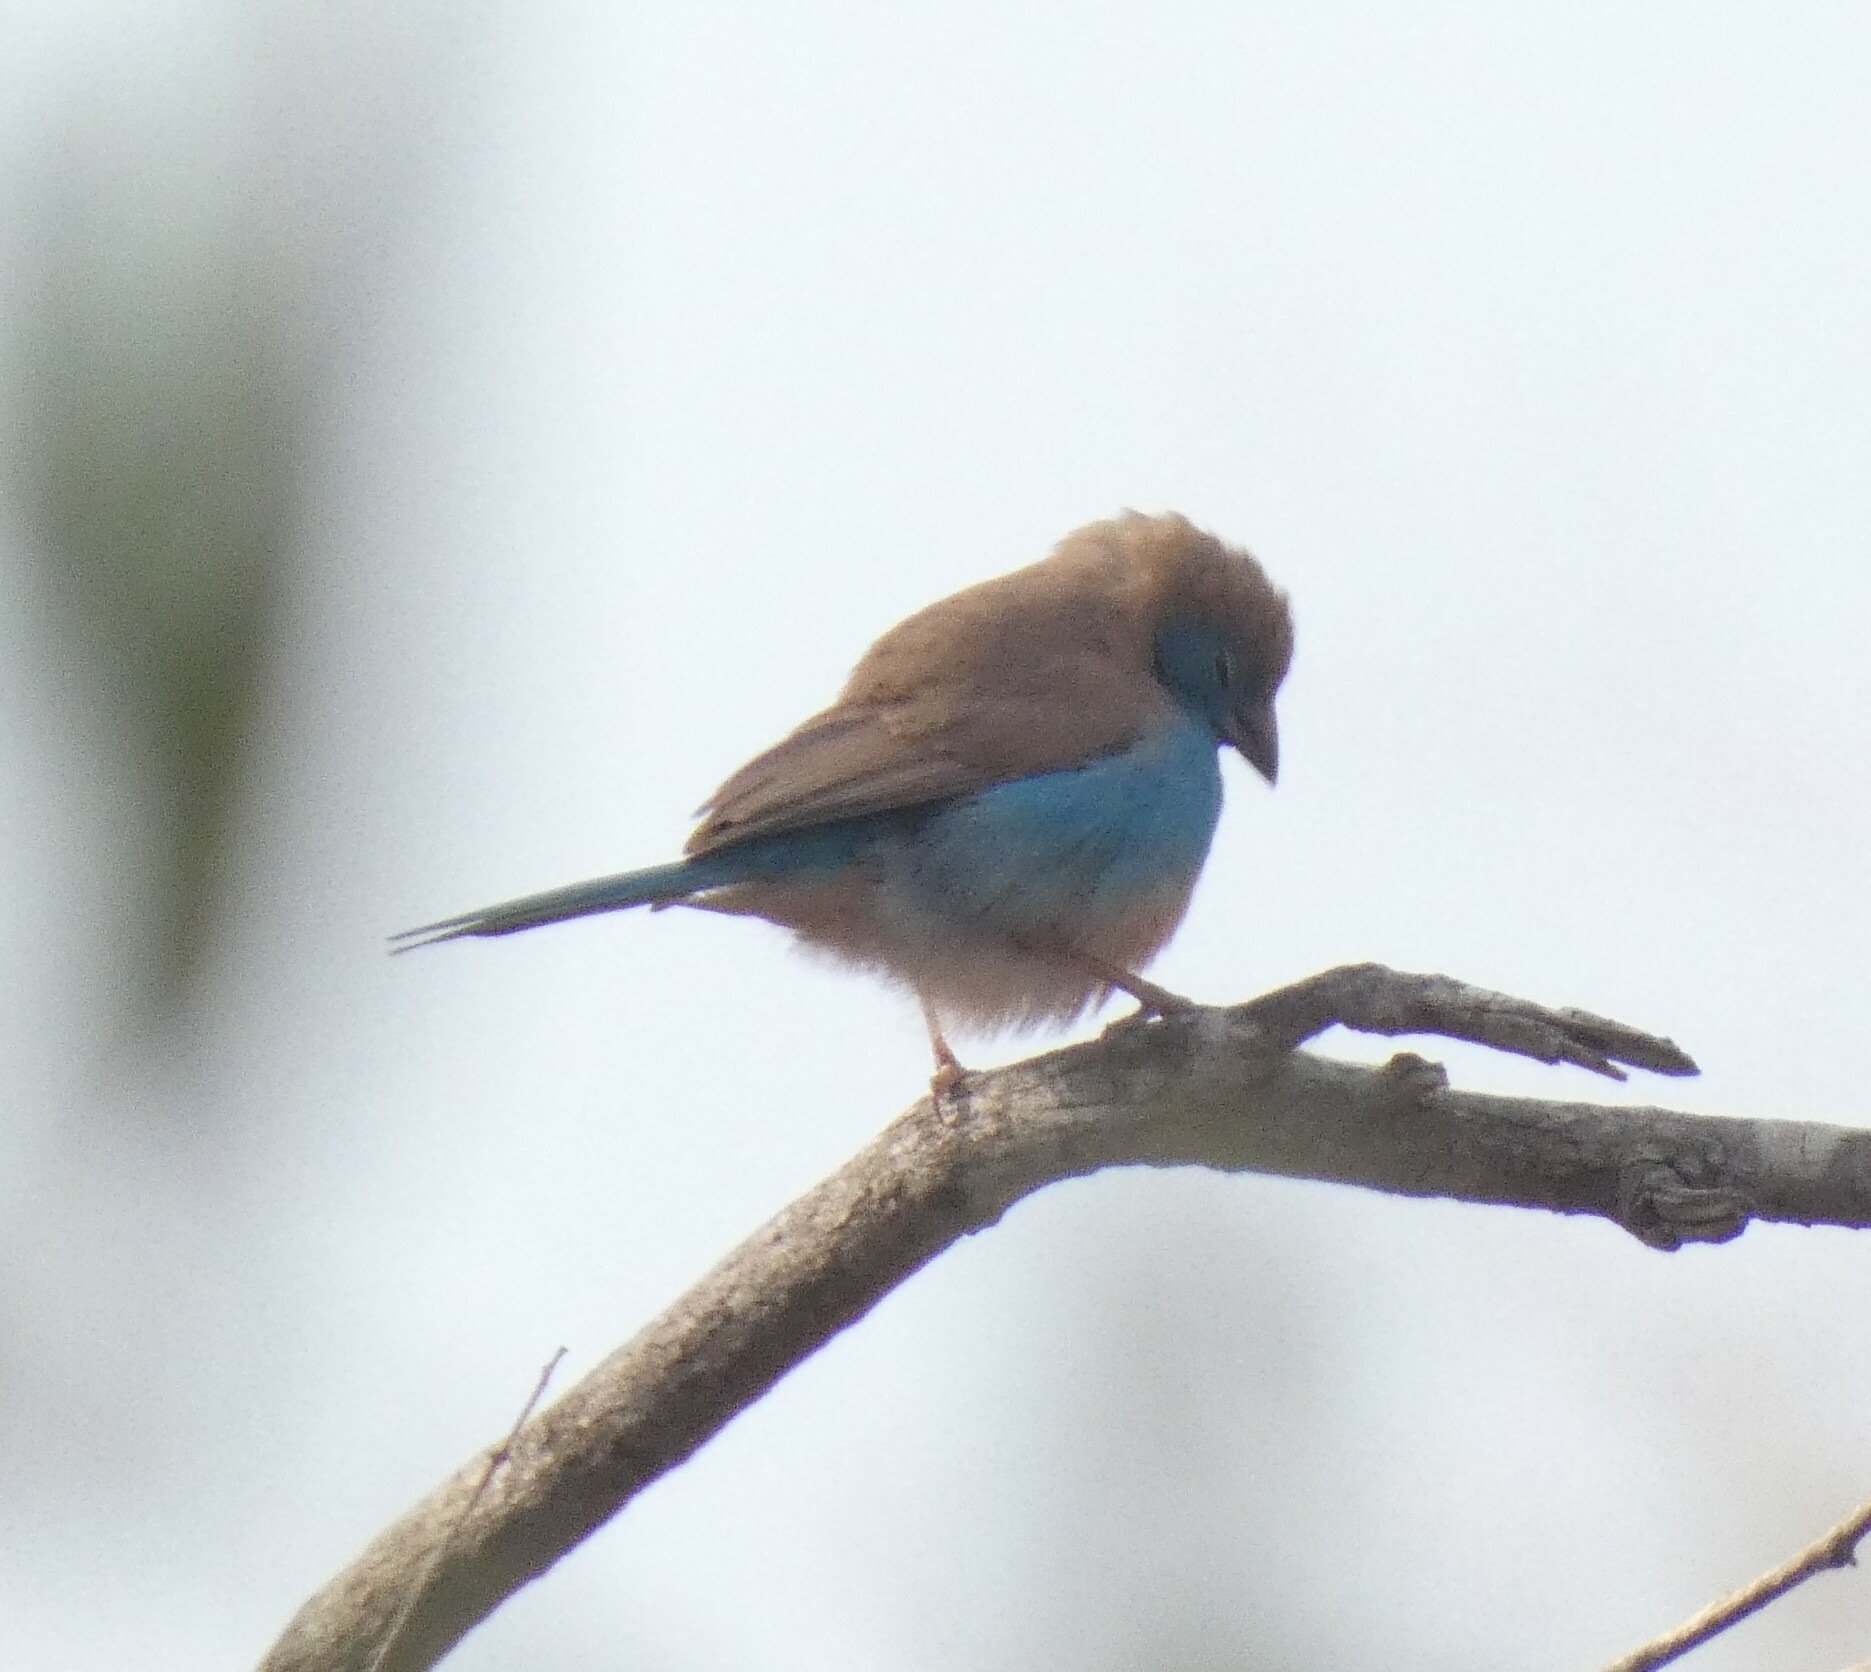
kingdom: Animalia
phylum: Chordata
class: Aves
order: Passeriformes
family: Estrildidae
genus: Uraeginthus
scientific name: Uraeginthus angolensis
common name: Blue waxbill
